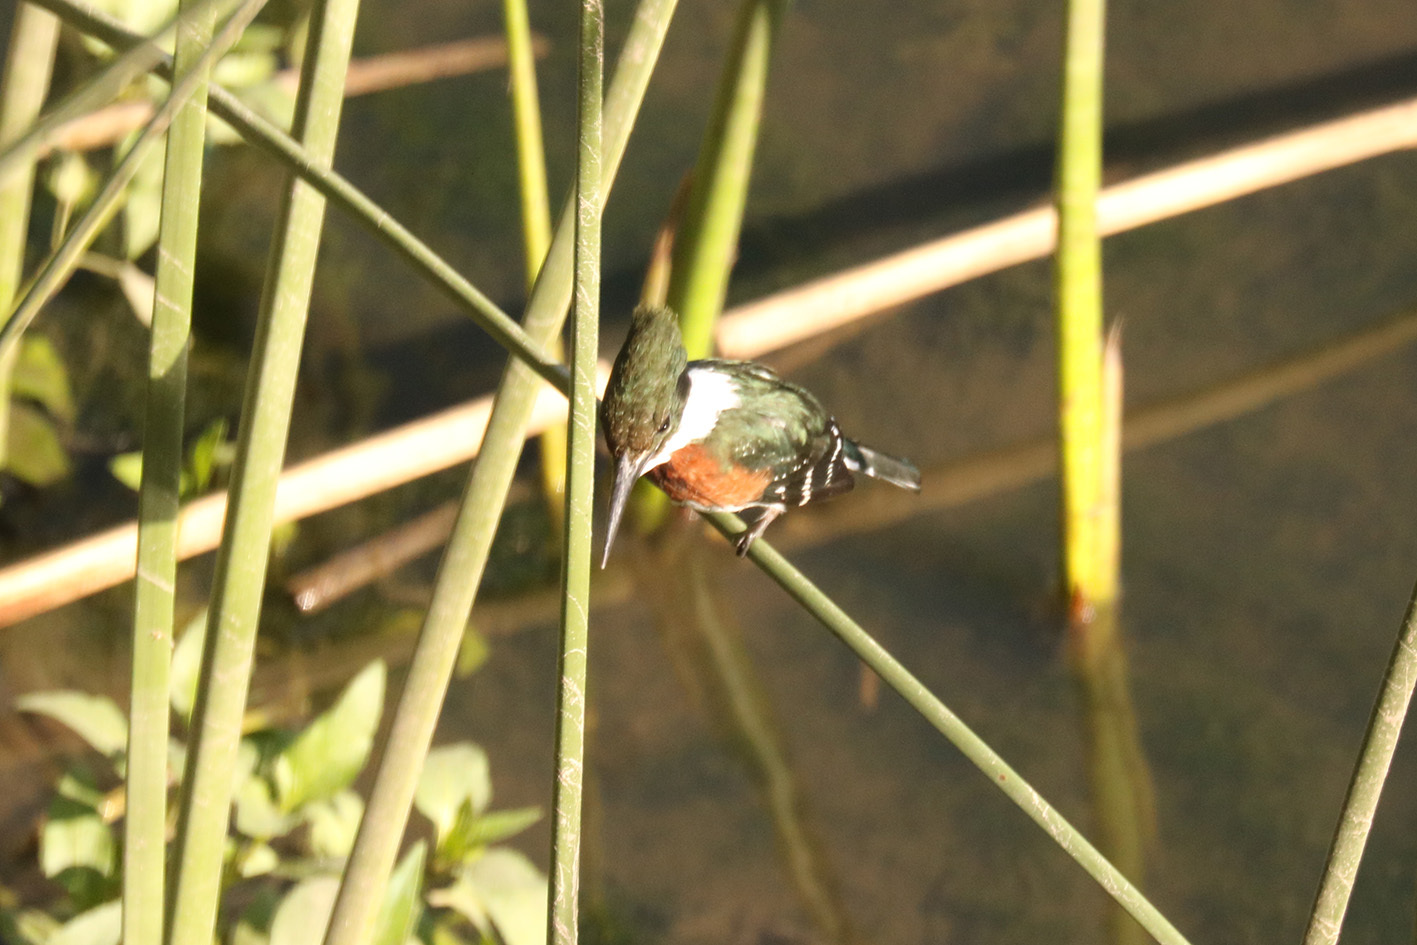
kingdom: Animalia
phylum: Chordata
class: Aves
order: Coraciiformes
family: Alcedinidae
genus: Chloroceryle
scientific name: Chloroceryle americana
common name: Green kingfisher
